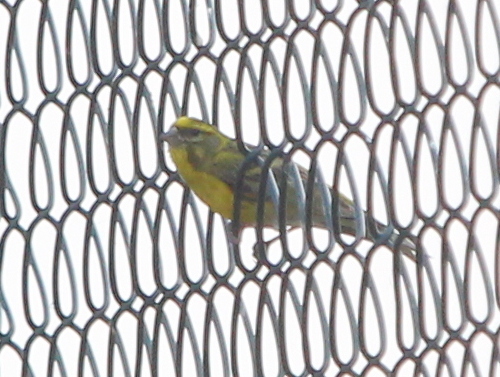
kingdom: Animalia
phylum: Chordata
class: Aves
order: Passeriformes
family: Fringillidae
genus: Serinus
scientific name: Serinus serinus
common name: European serin
